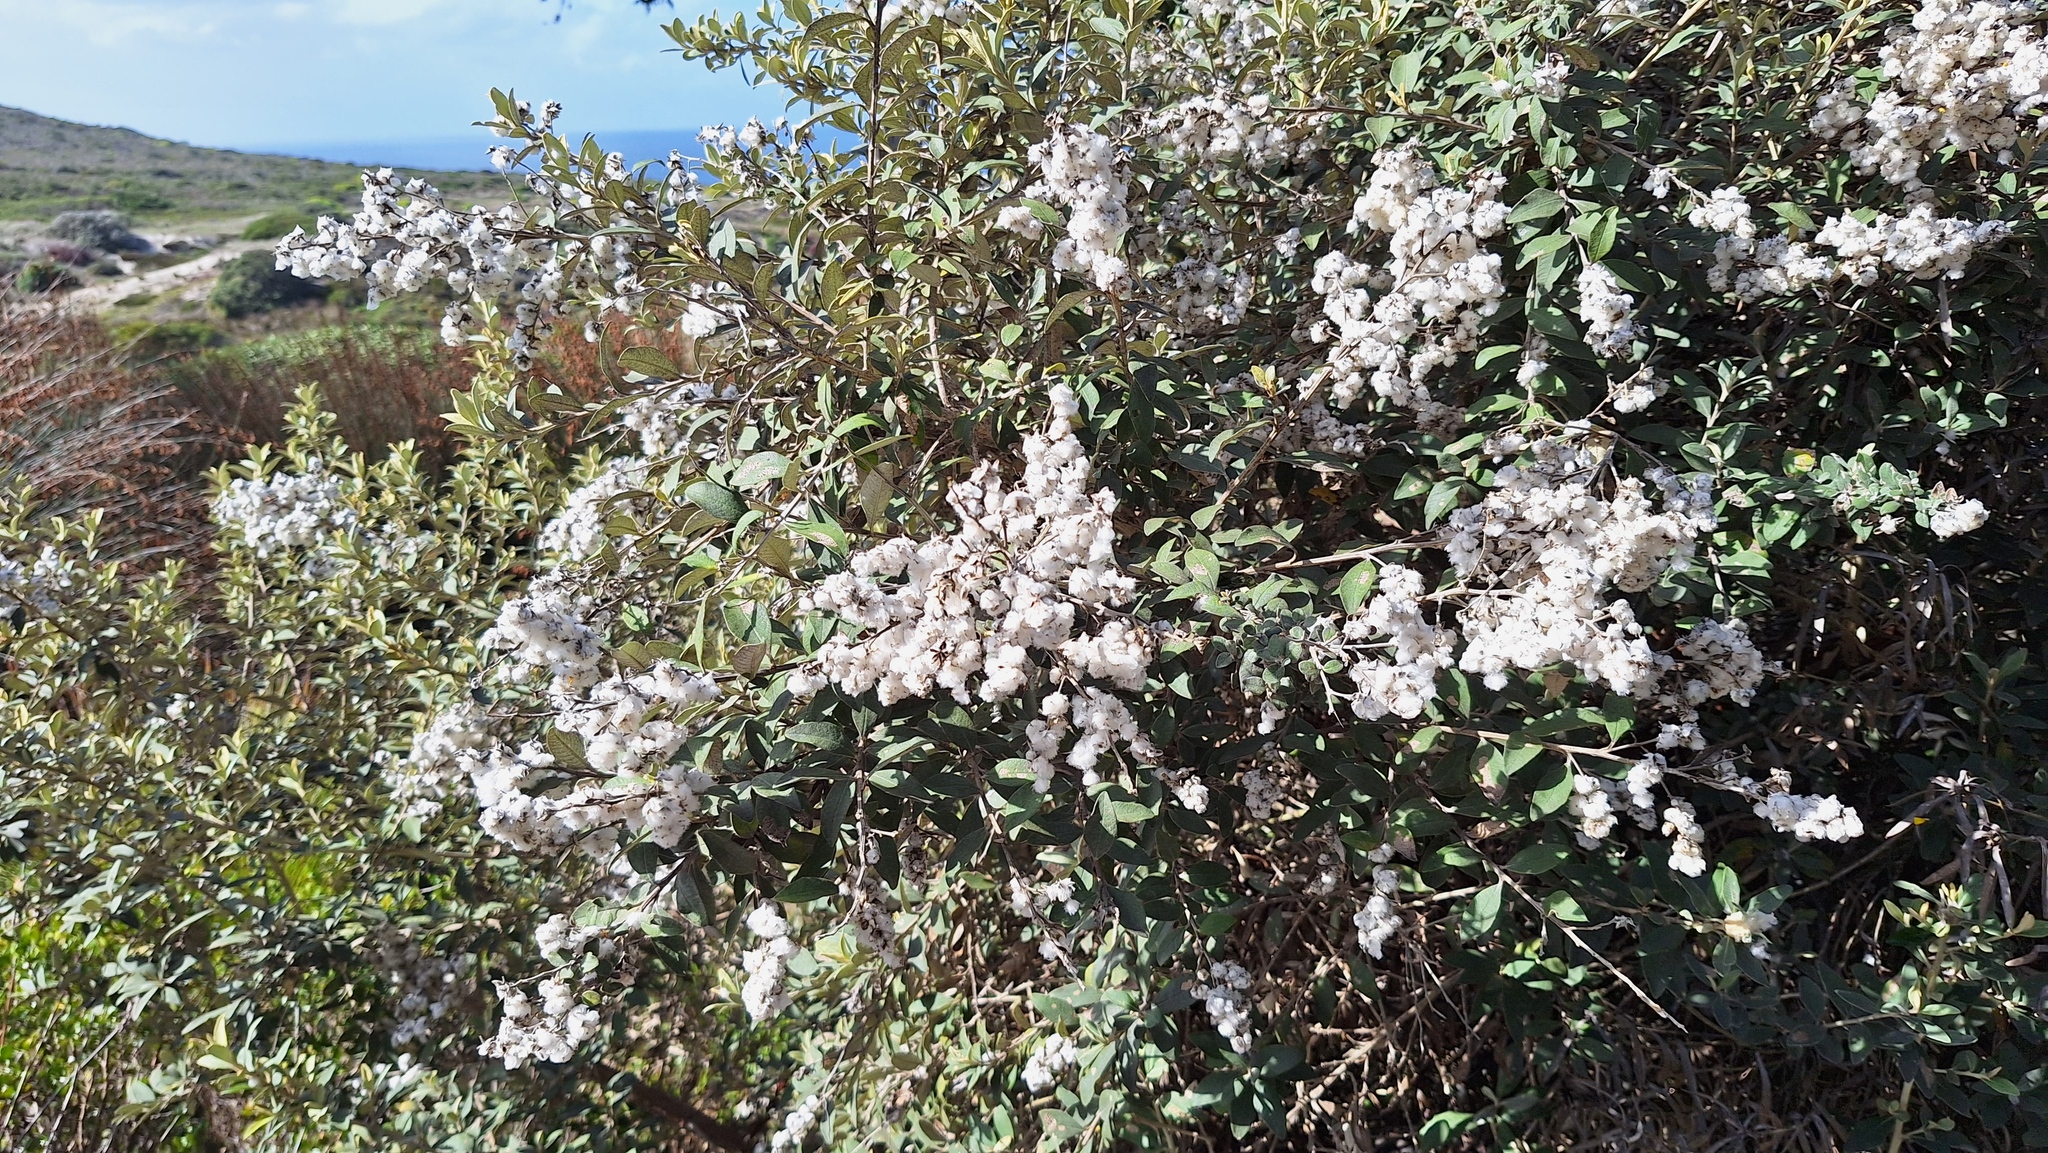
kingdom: Plantae
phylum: Tracheophyta
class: Magnoliopsida
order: Asterales
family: Asteraceae
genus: Tarchonanthus
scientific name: Tarchonanthus littoralis
